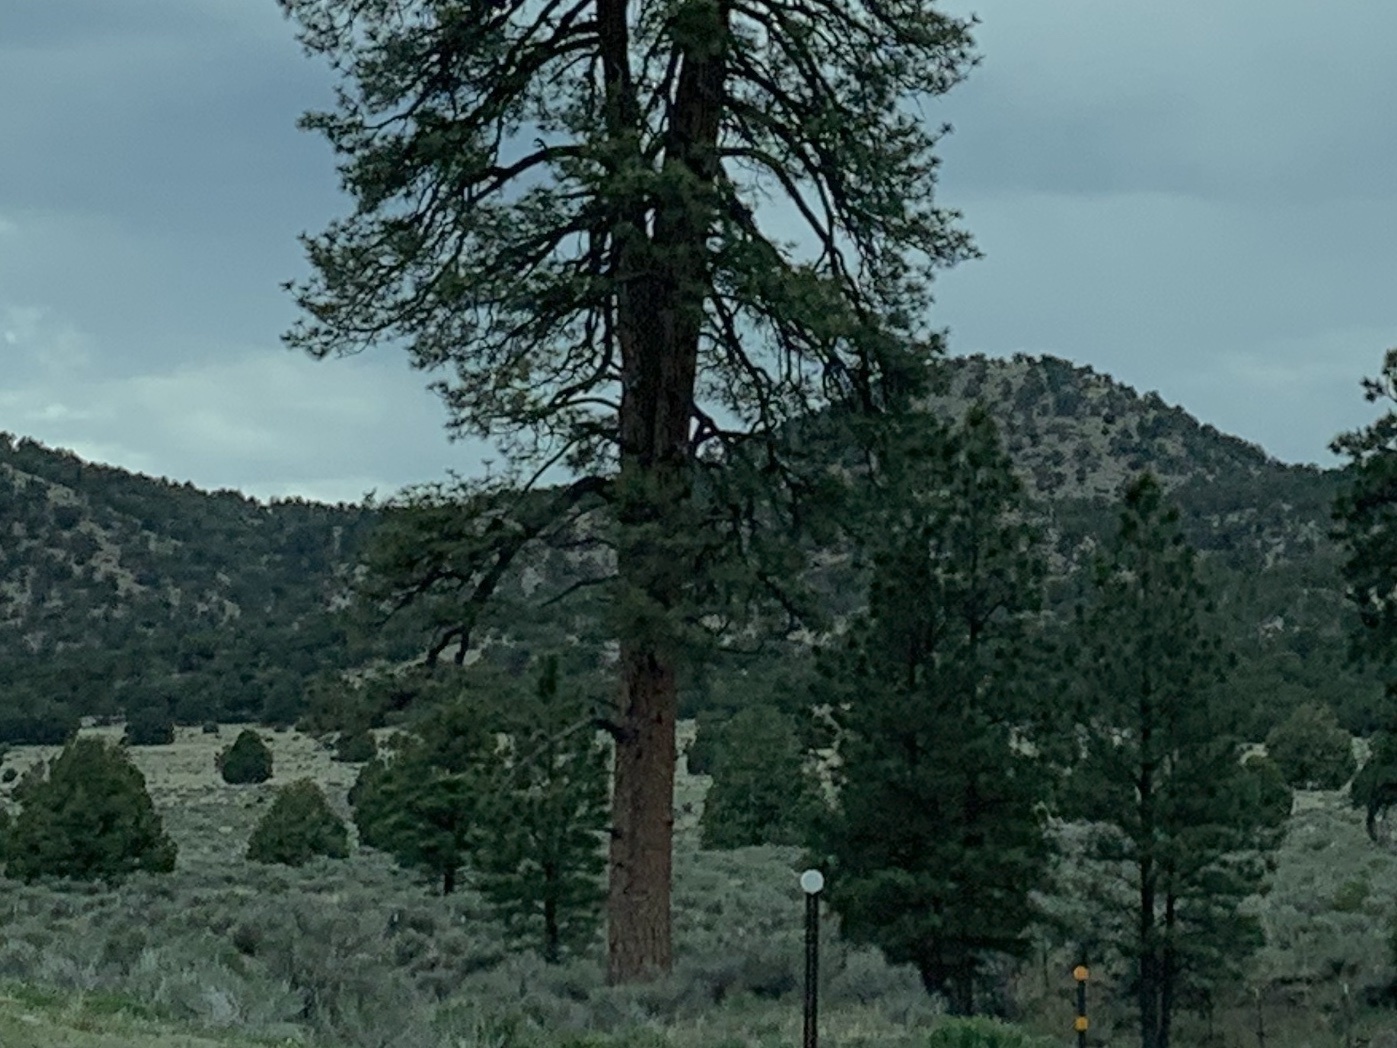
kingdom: Plantae
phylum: Tracheophyta
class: Pinopsida
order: Pinales
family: Pinaceae
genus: Pinus
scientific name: Pinus ponderosa
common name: Western yellow-pine
